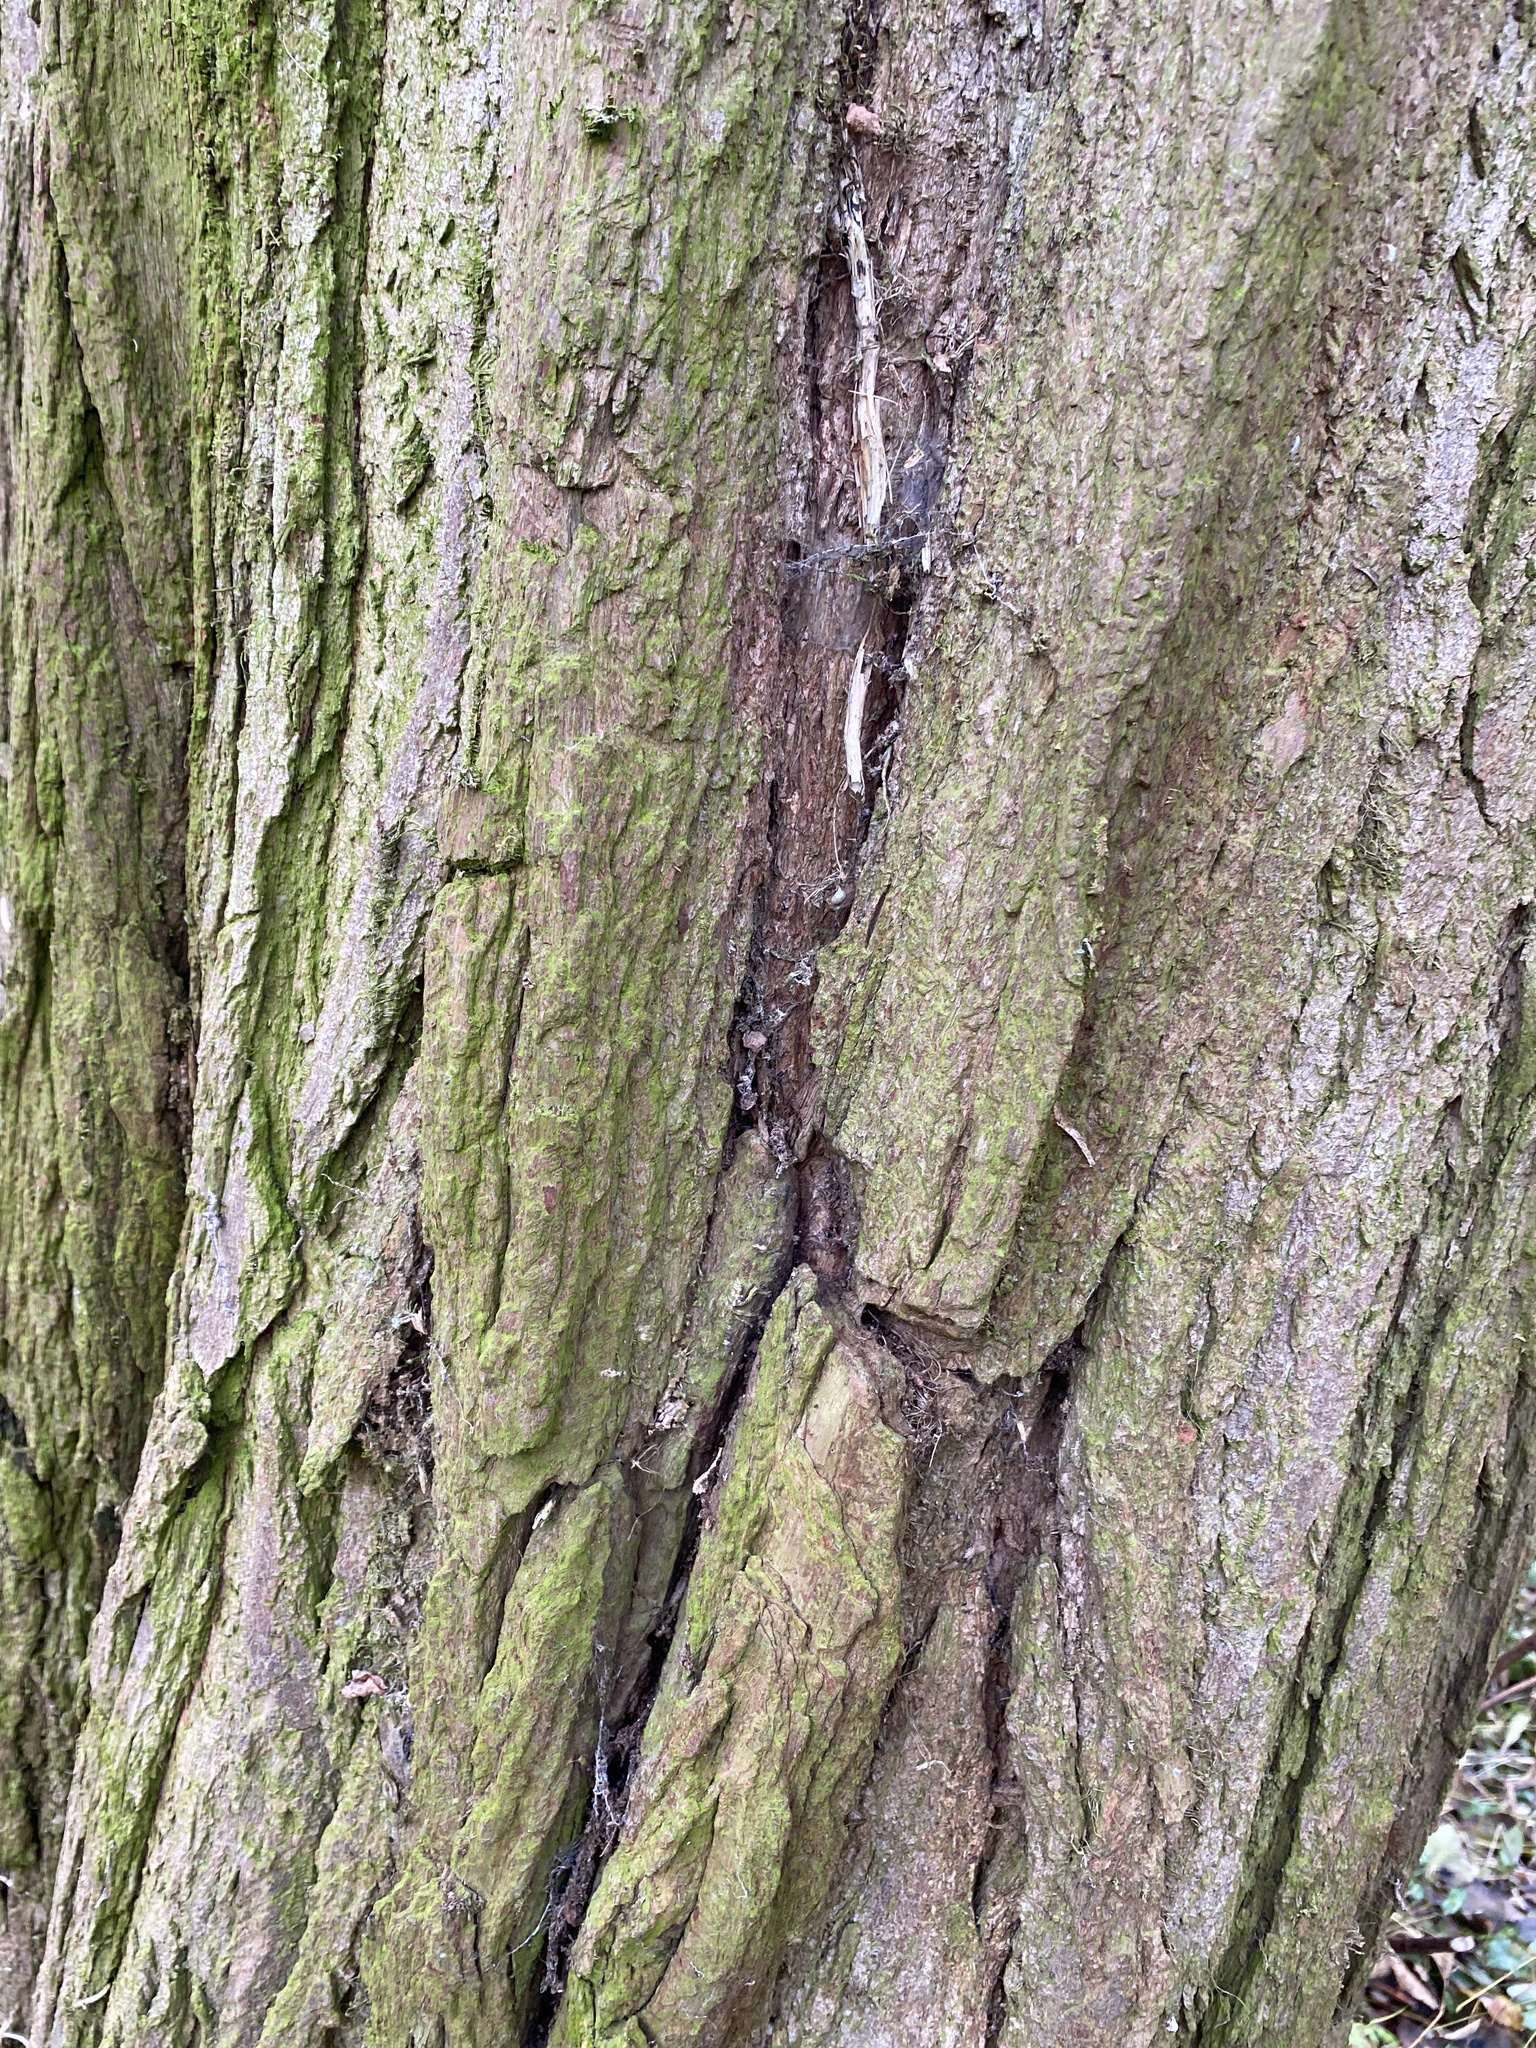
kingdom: Plantae
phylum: Tracheophyta
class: Magnoliopsida
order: Fabales
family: Fabaceae
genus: Robinia
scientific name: Robinia pseudoacacia
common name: Black locust
